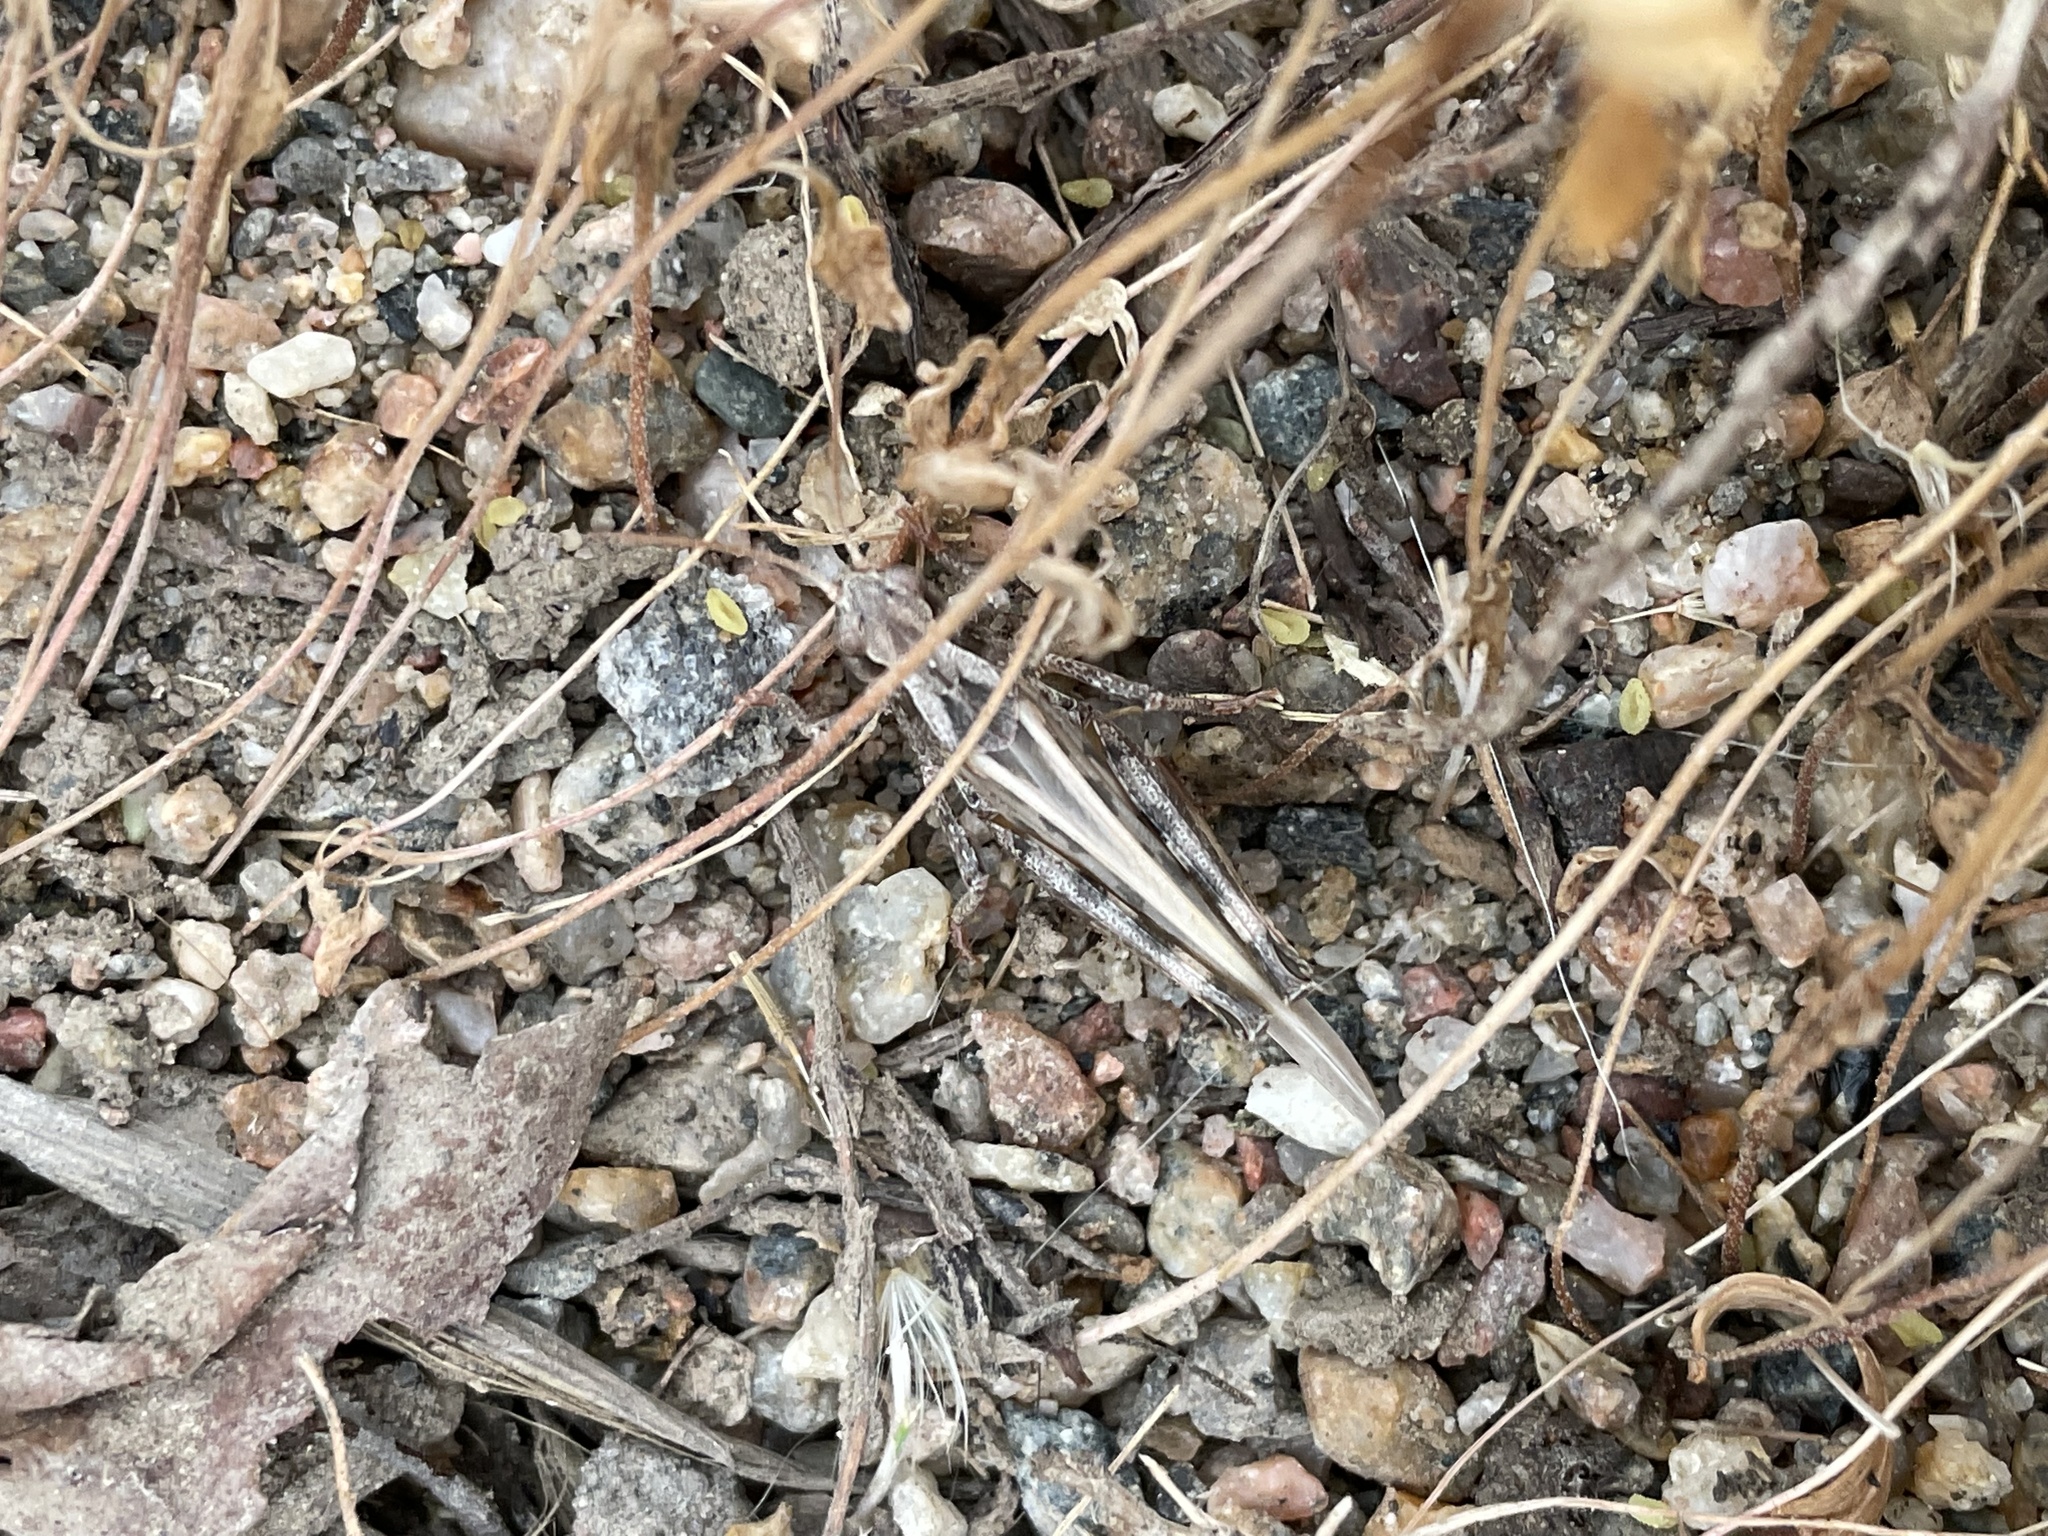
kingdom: Animalia
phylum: Arthropoda
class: Insecta
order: Orthoptera
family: Acrididae
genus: Camnula
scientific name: Camnula pellucida
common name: Clear-winged grasshopper
